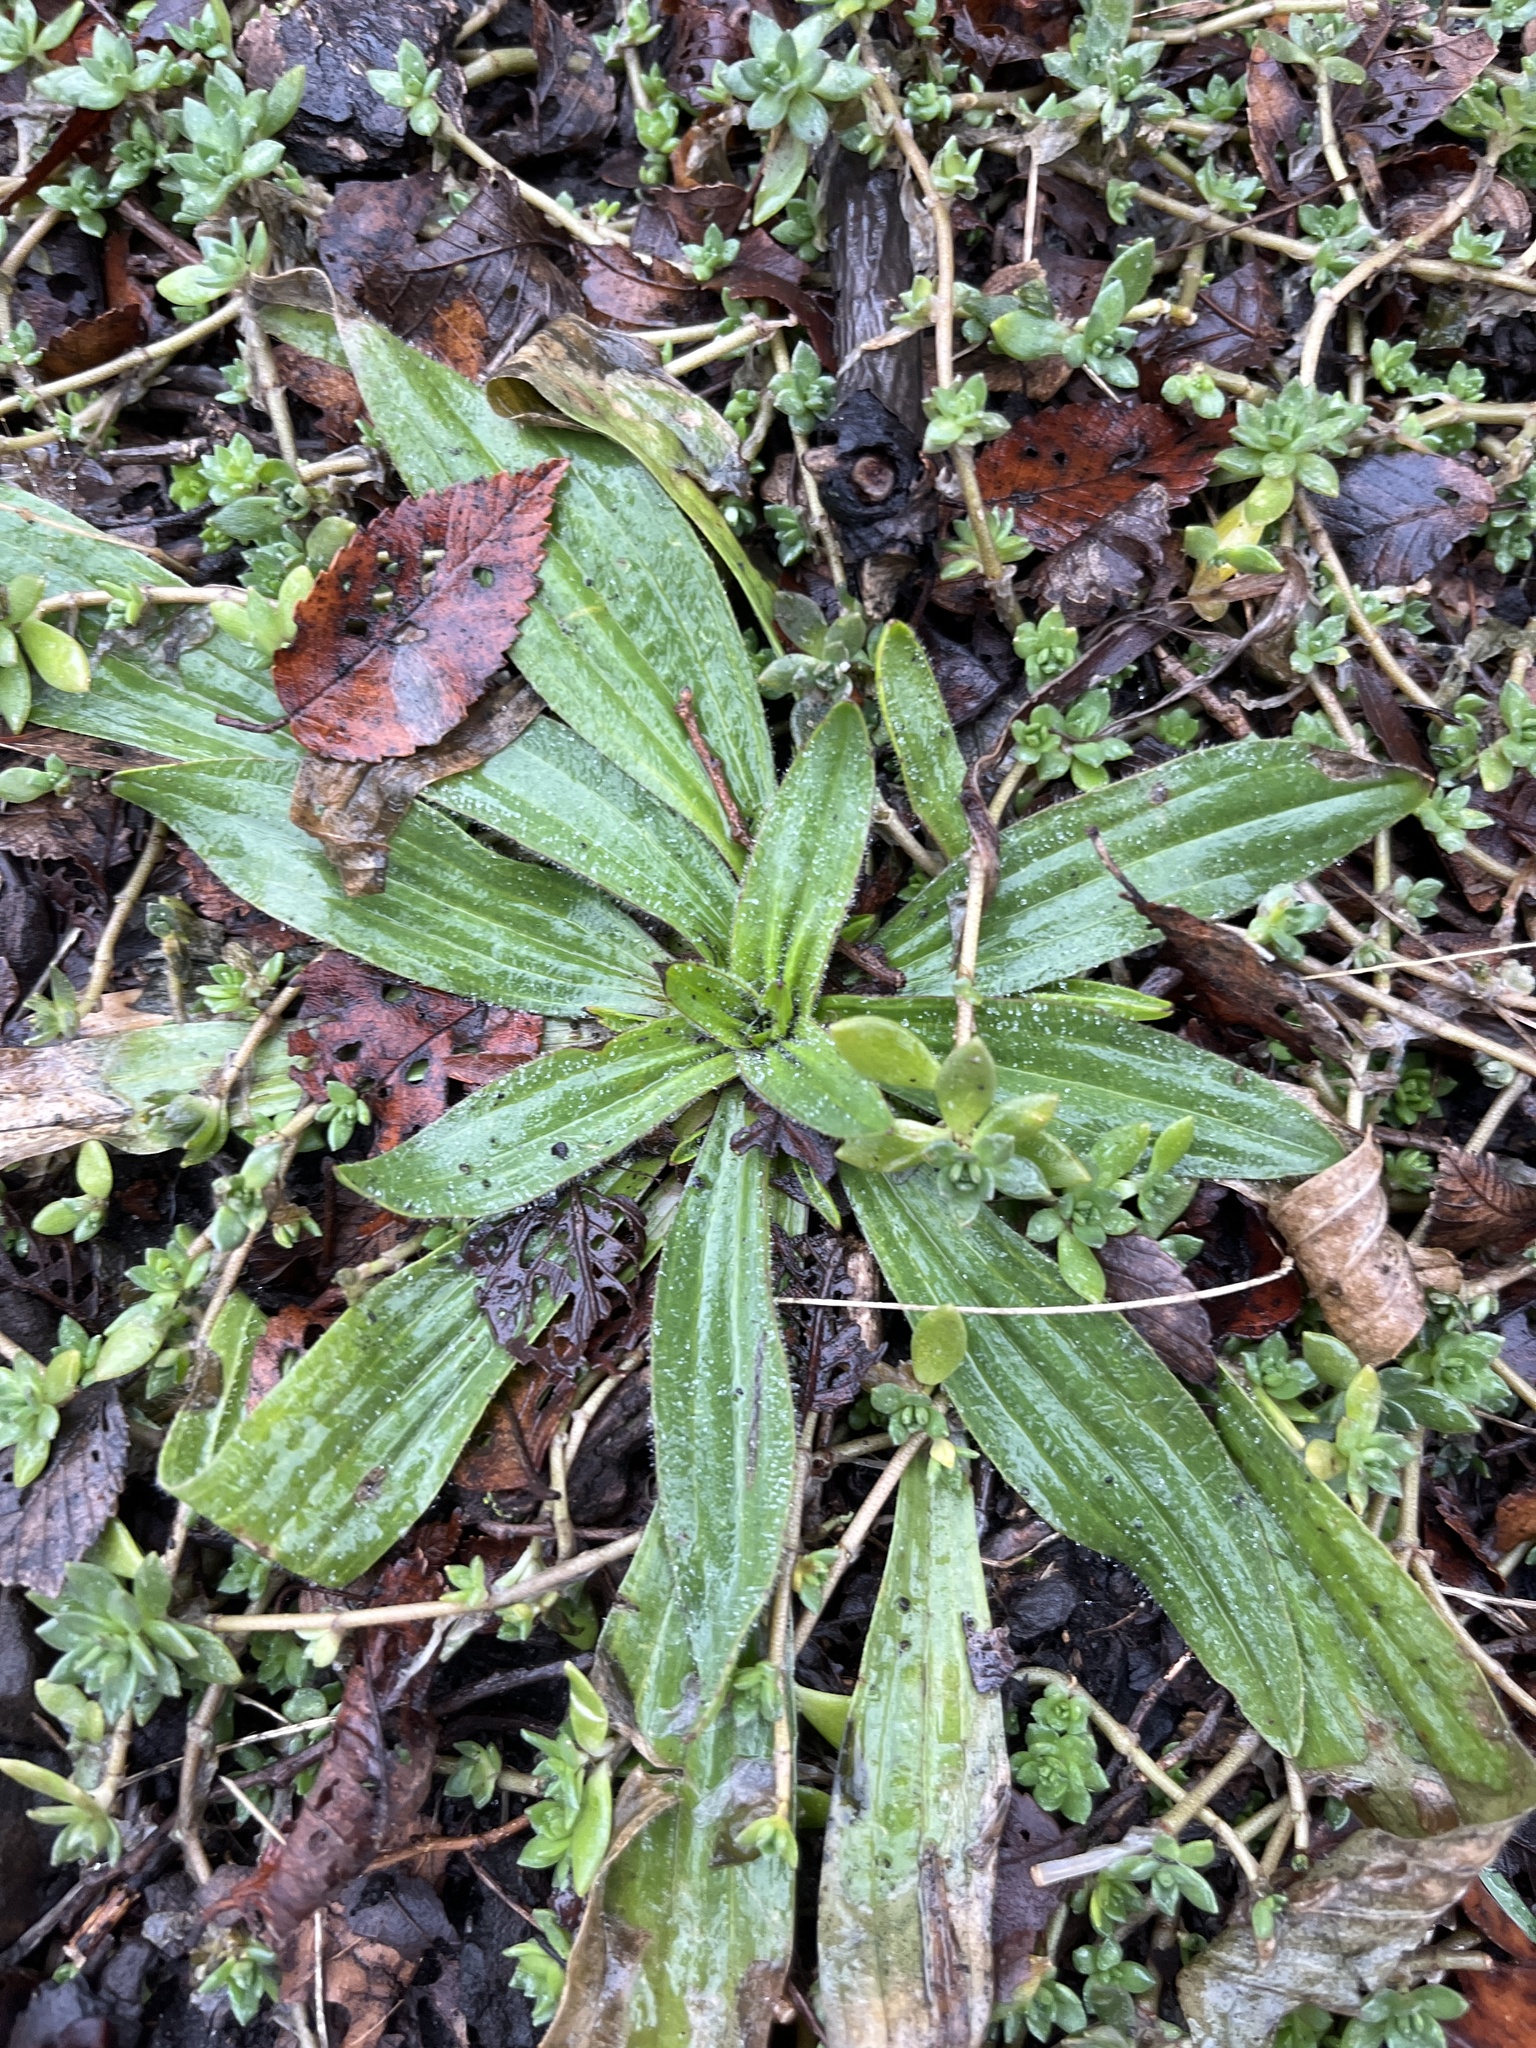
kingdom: Plantae
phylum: Tracheophyta
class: Magnoliopsida
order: Lamiales
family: Plantaginaceae
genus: Plantago
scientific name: Plantago lanceolata
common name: Ribwort plantain
